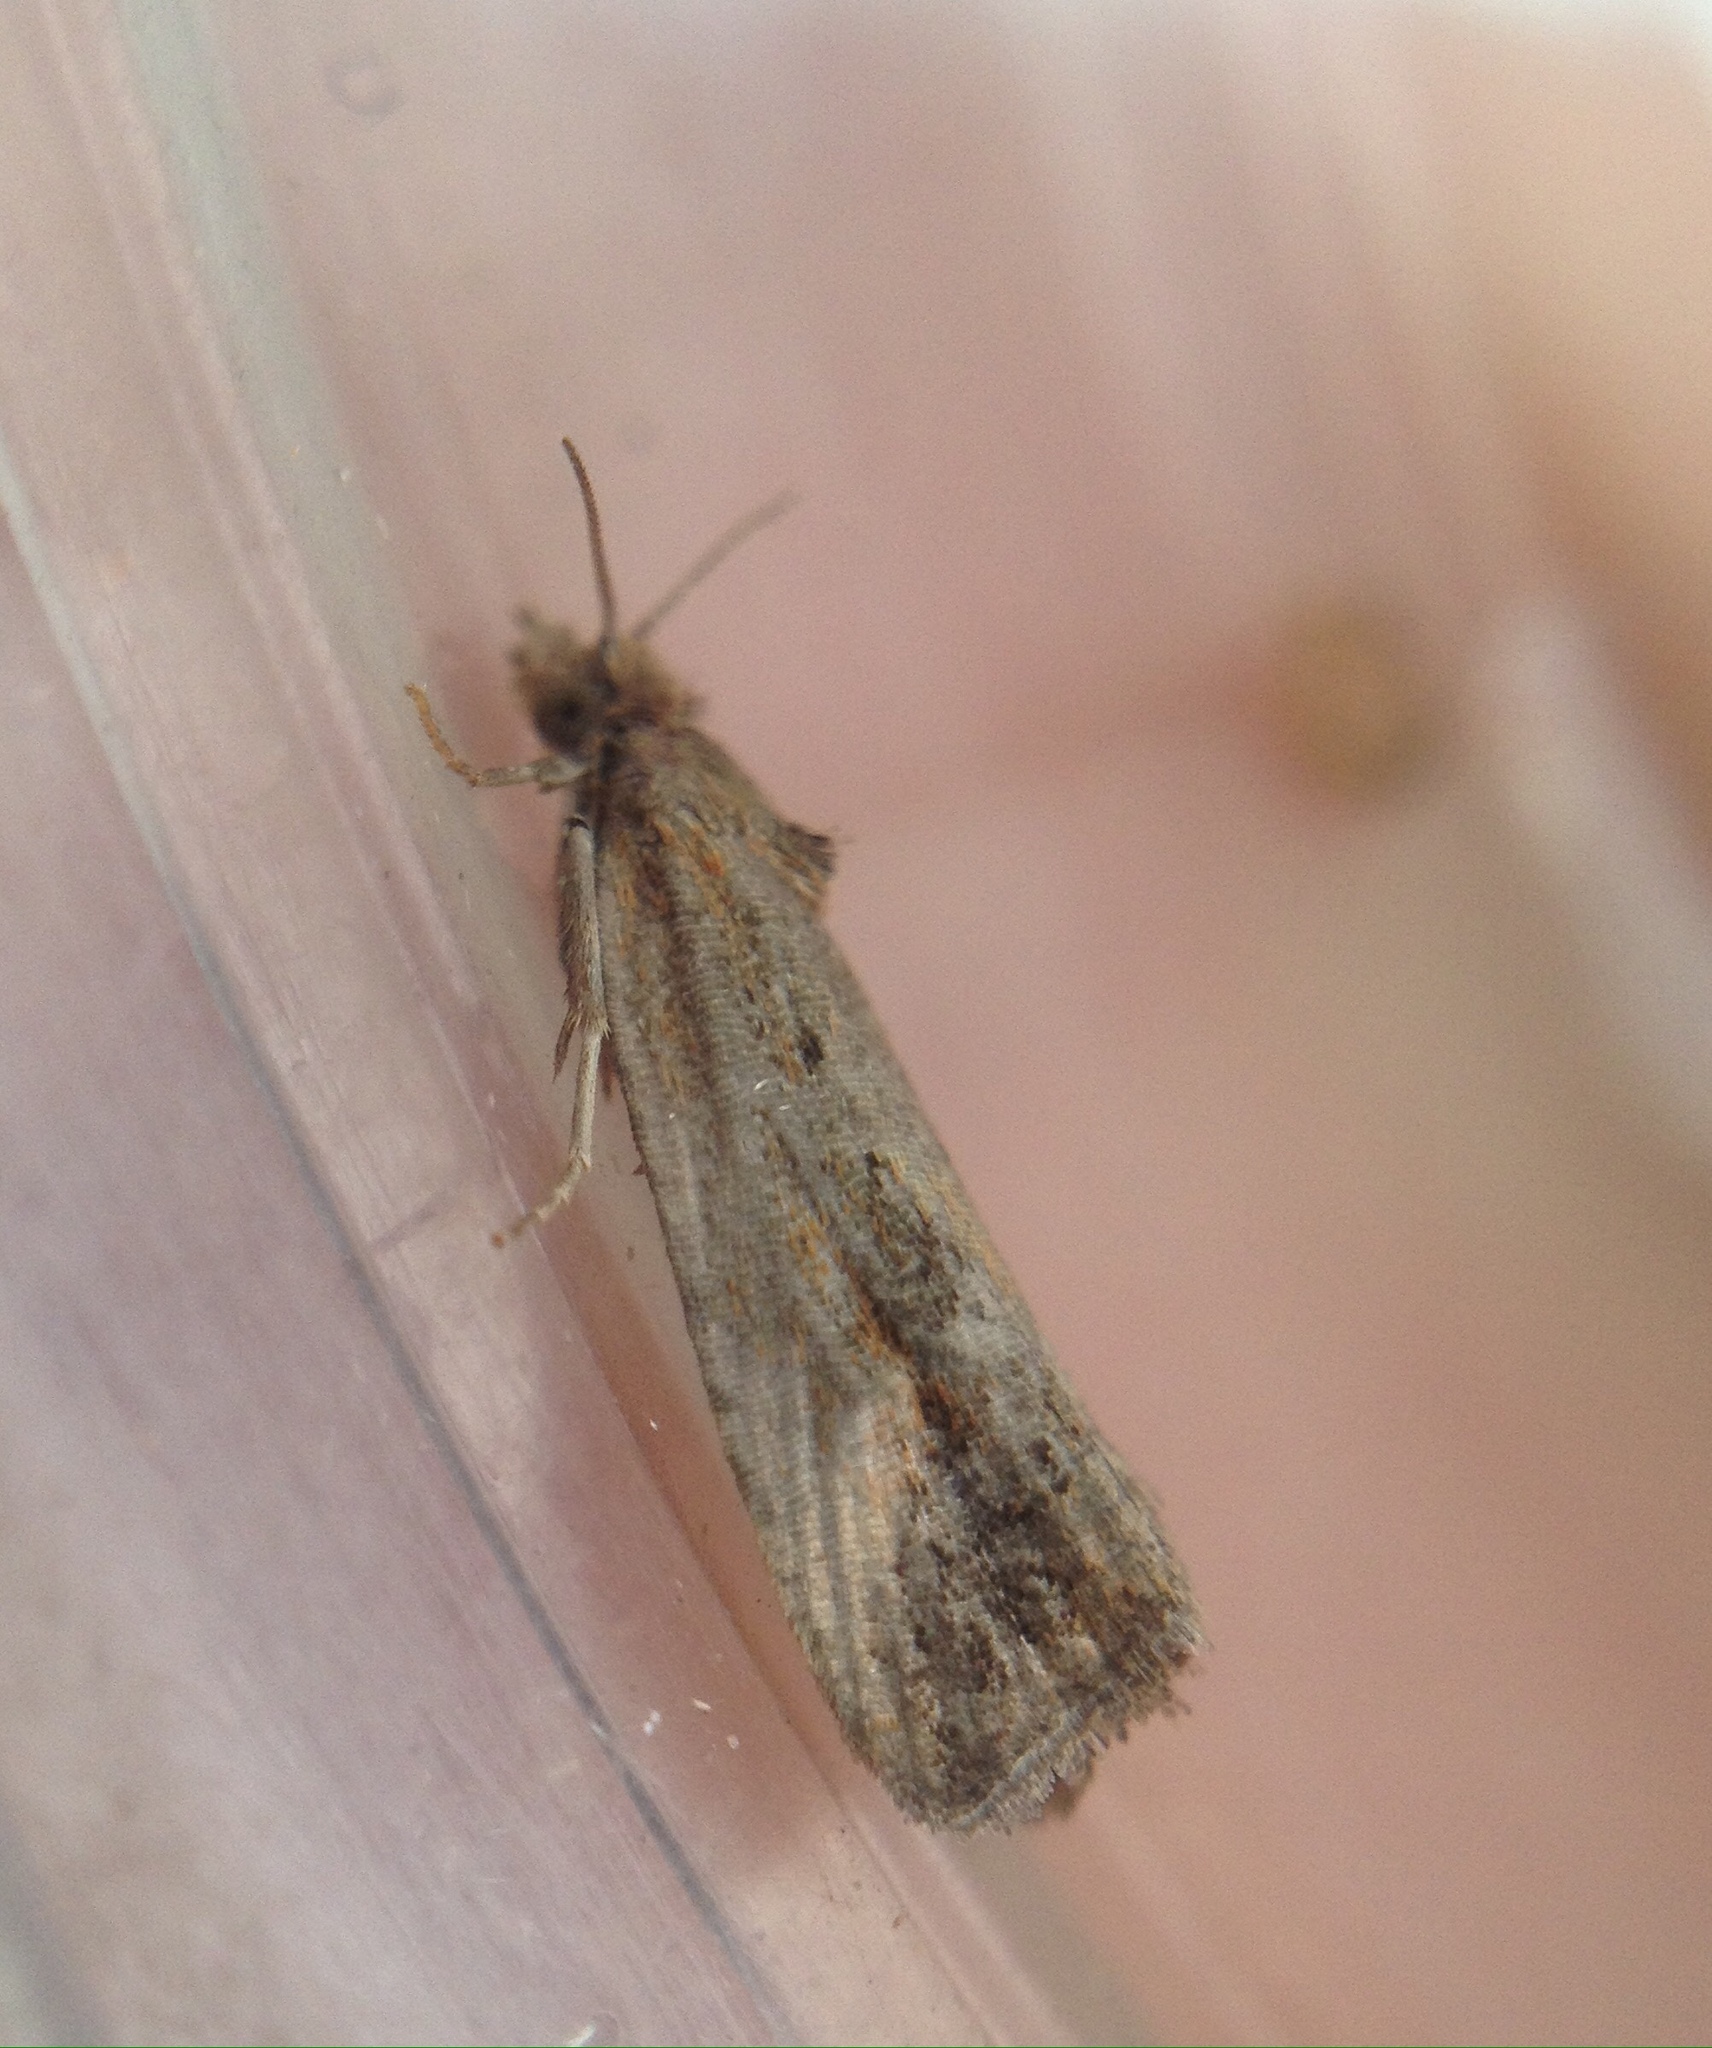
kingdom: Animalia
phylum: Arthropoda
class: Insecta
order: Lepidoptera
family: Tortricidae
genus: Endothenia
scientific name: Endothenia quadrimaculana
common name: Tortricid moth
